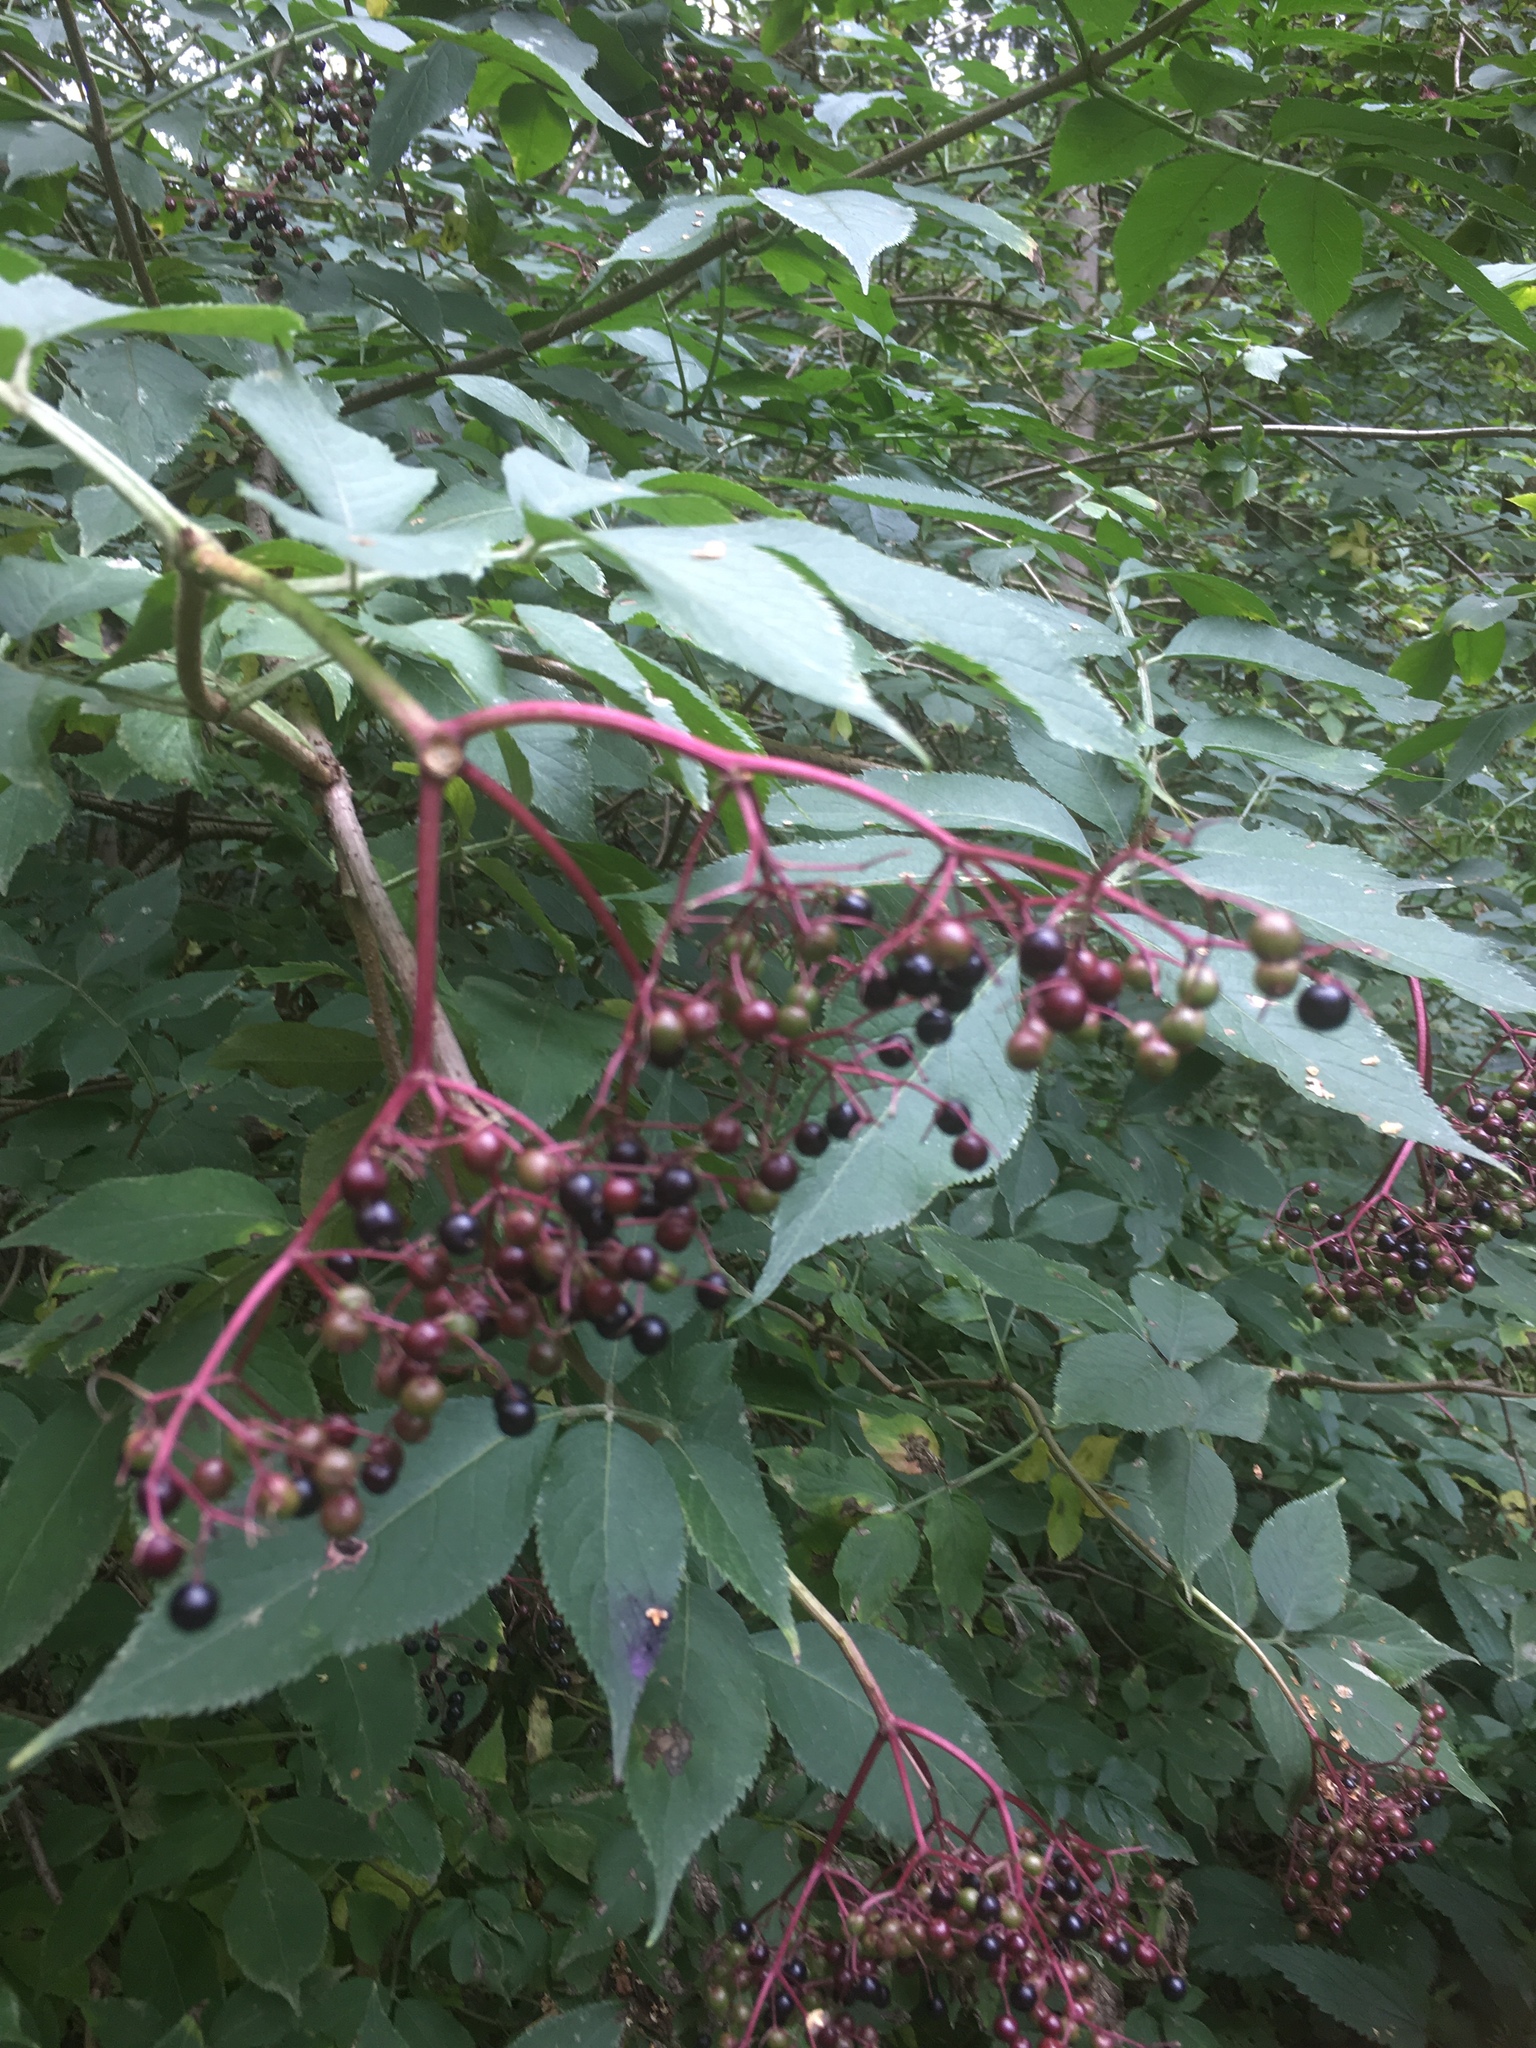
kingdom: Plantae
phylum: Tracheophyta
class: Magnoliopsida
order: Dipsacales
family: Viburnaceae
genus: Sambucus
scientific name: Sambucus nigra
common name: Elder
